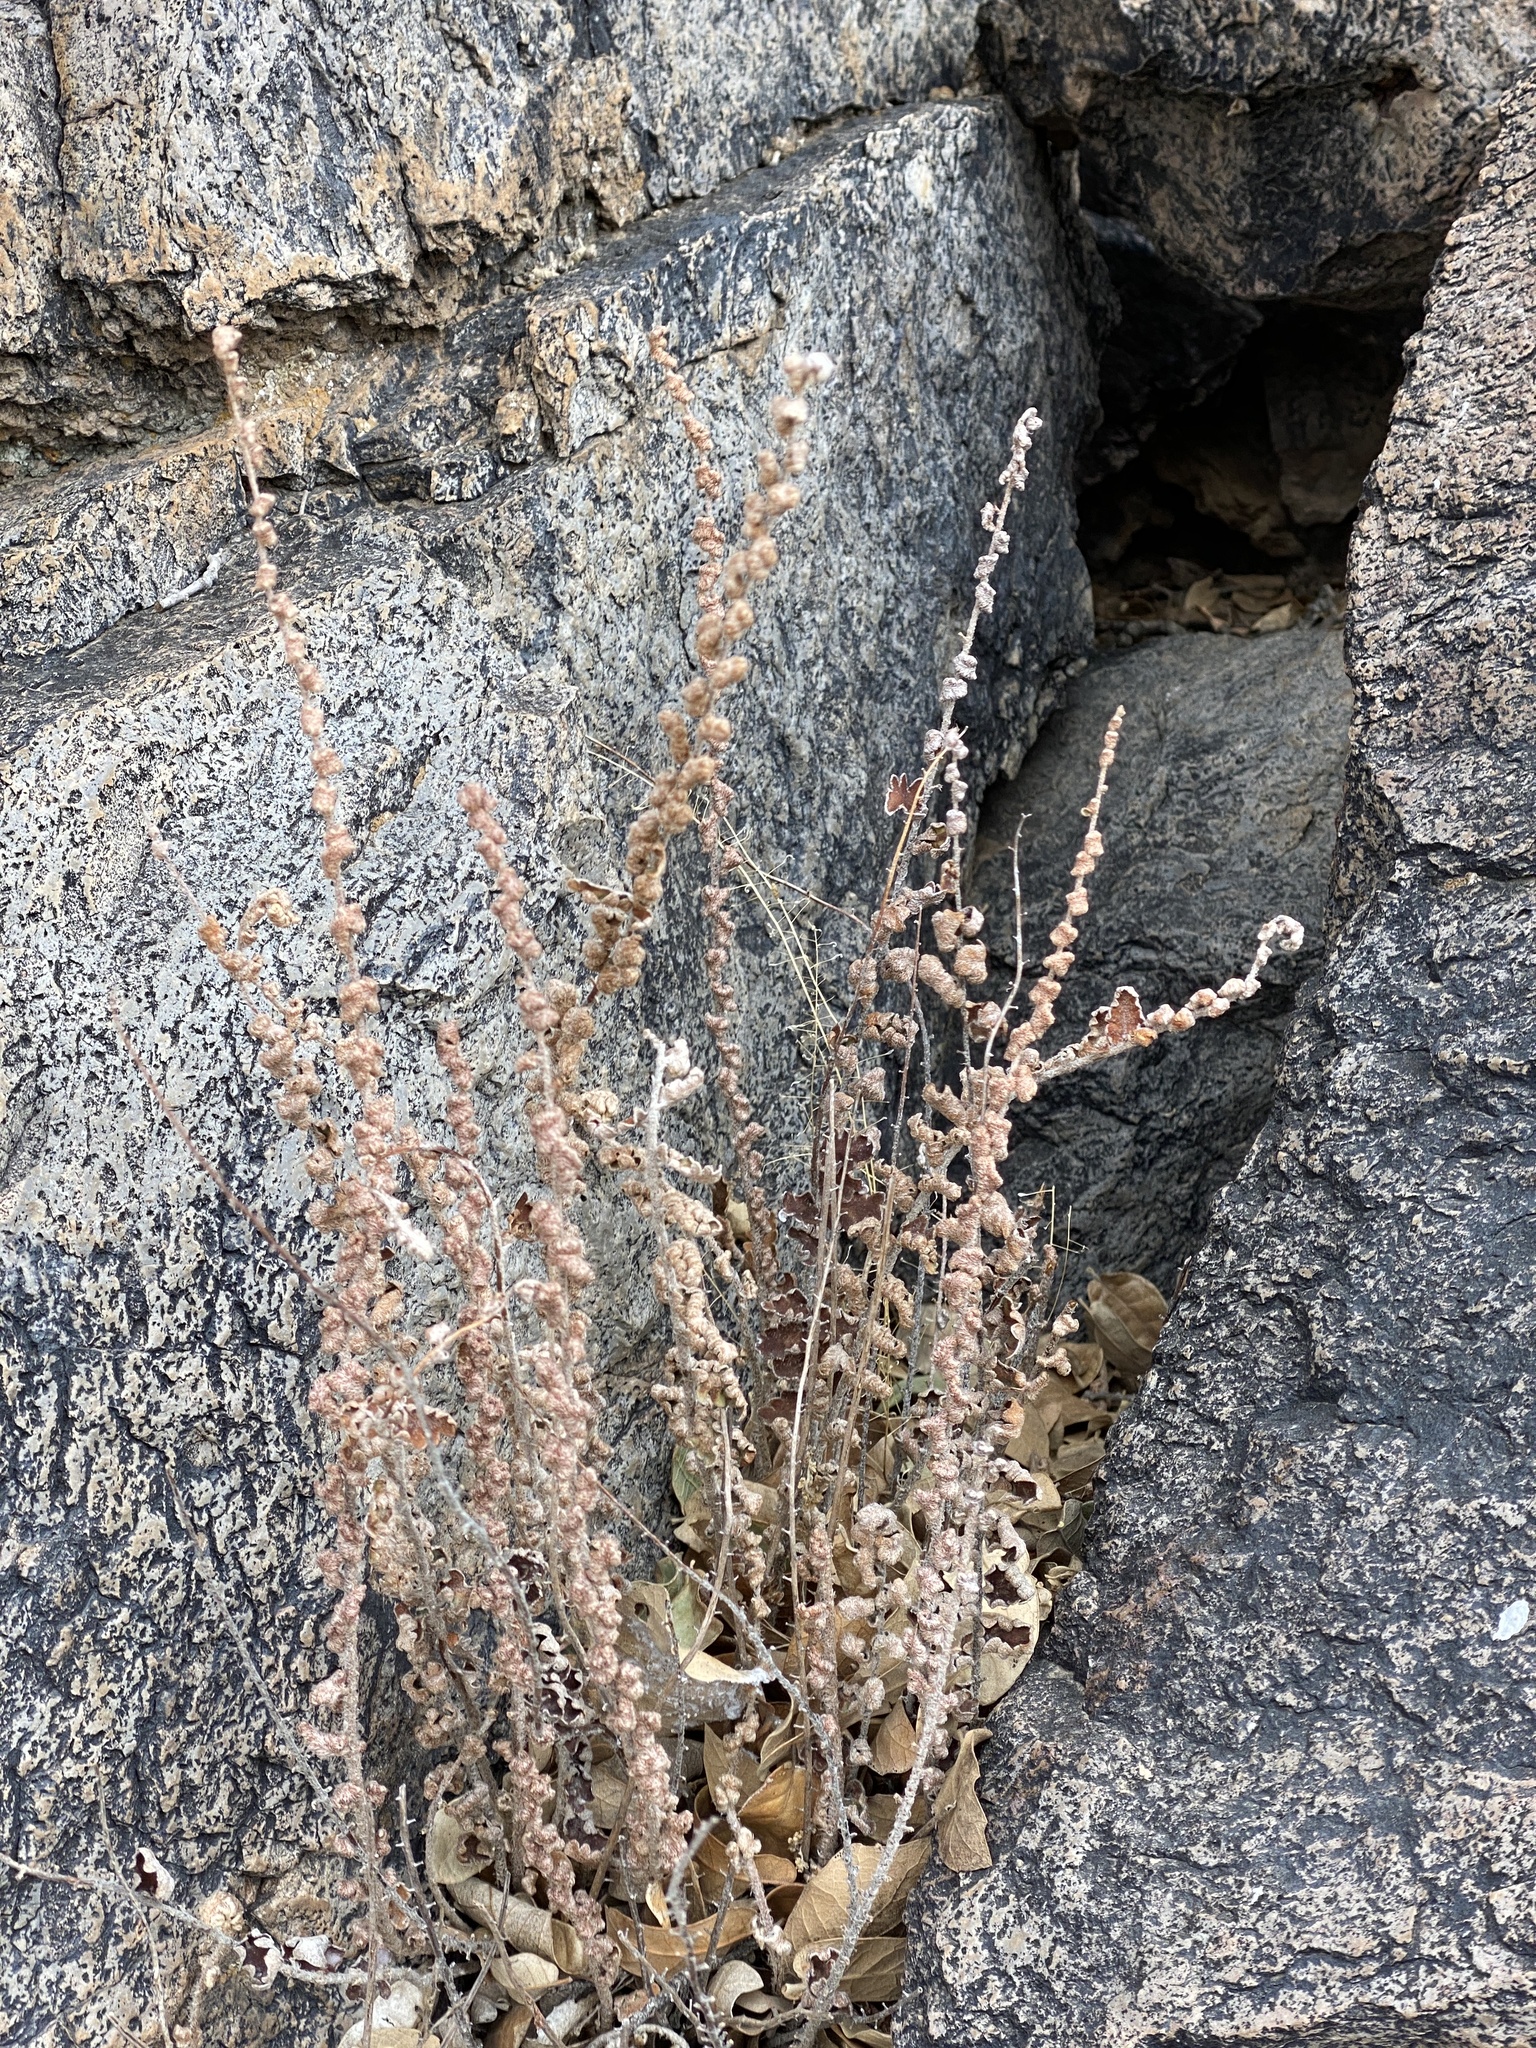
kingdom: Plantae
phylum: Tracheophyta
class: Polypodiopsida
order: Polypodiales
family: Pteridaceae
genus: Astrolepis
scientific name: Astrolepis sinuata
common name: Wavy scaly cloakfern
